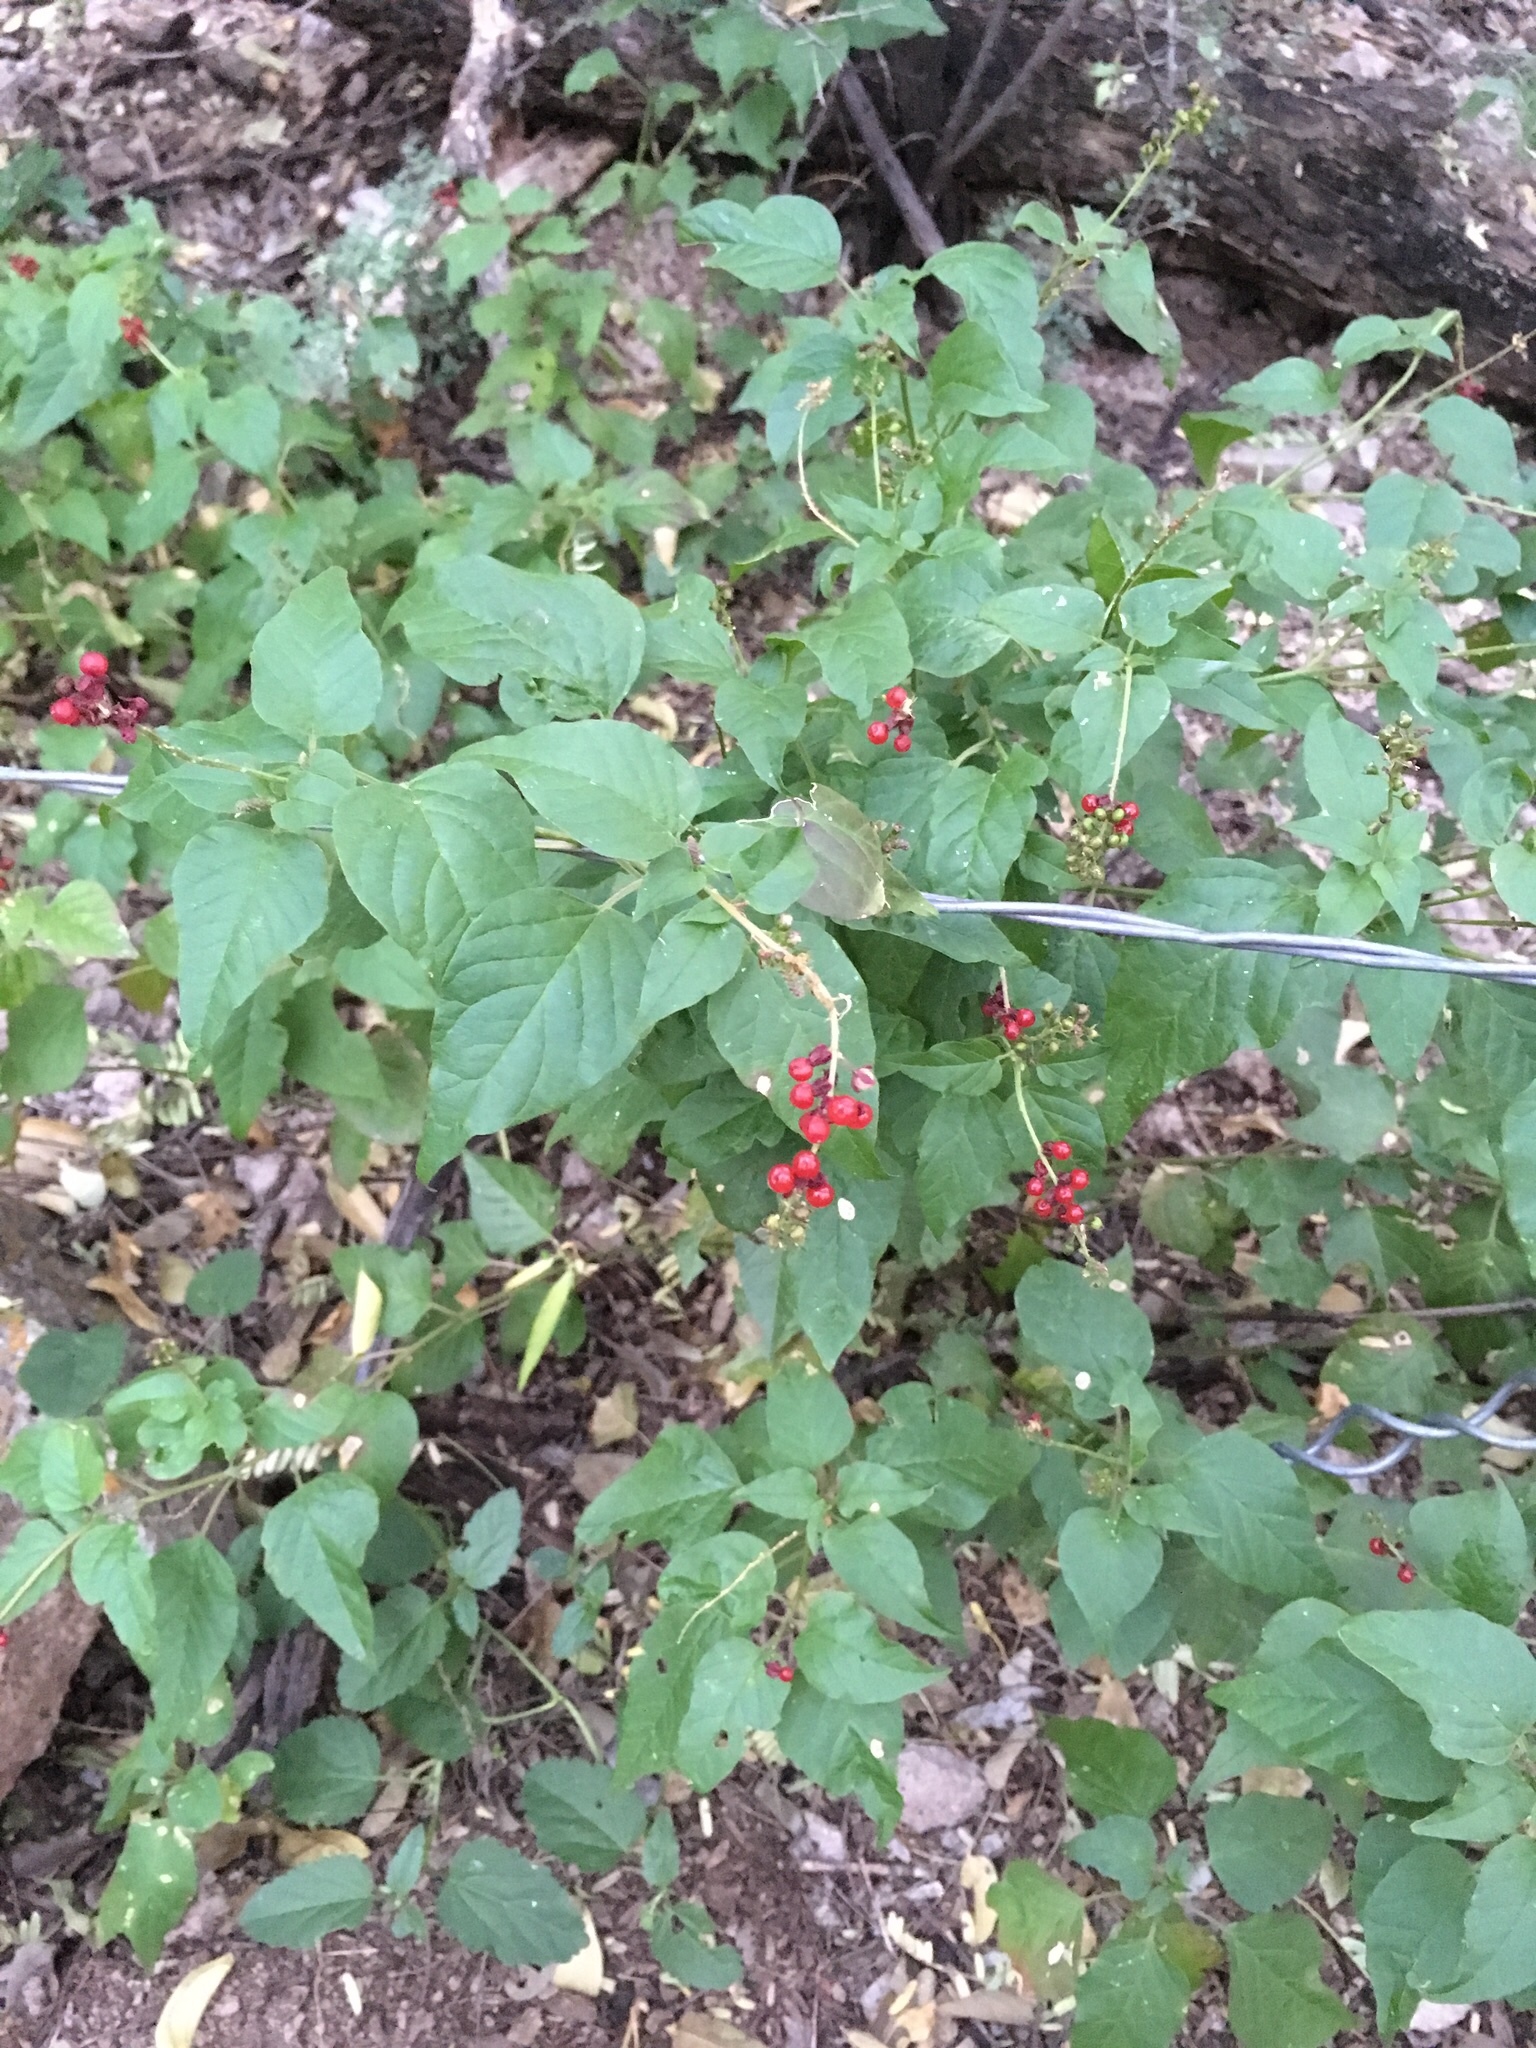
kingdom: Plantae
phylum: Tracheophyta
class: Magnoliopsida
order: Caryophyllales
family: Phytolaccaceae
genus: Rivina
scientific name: Rivina humilis
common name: Rougeplant
